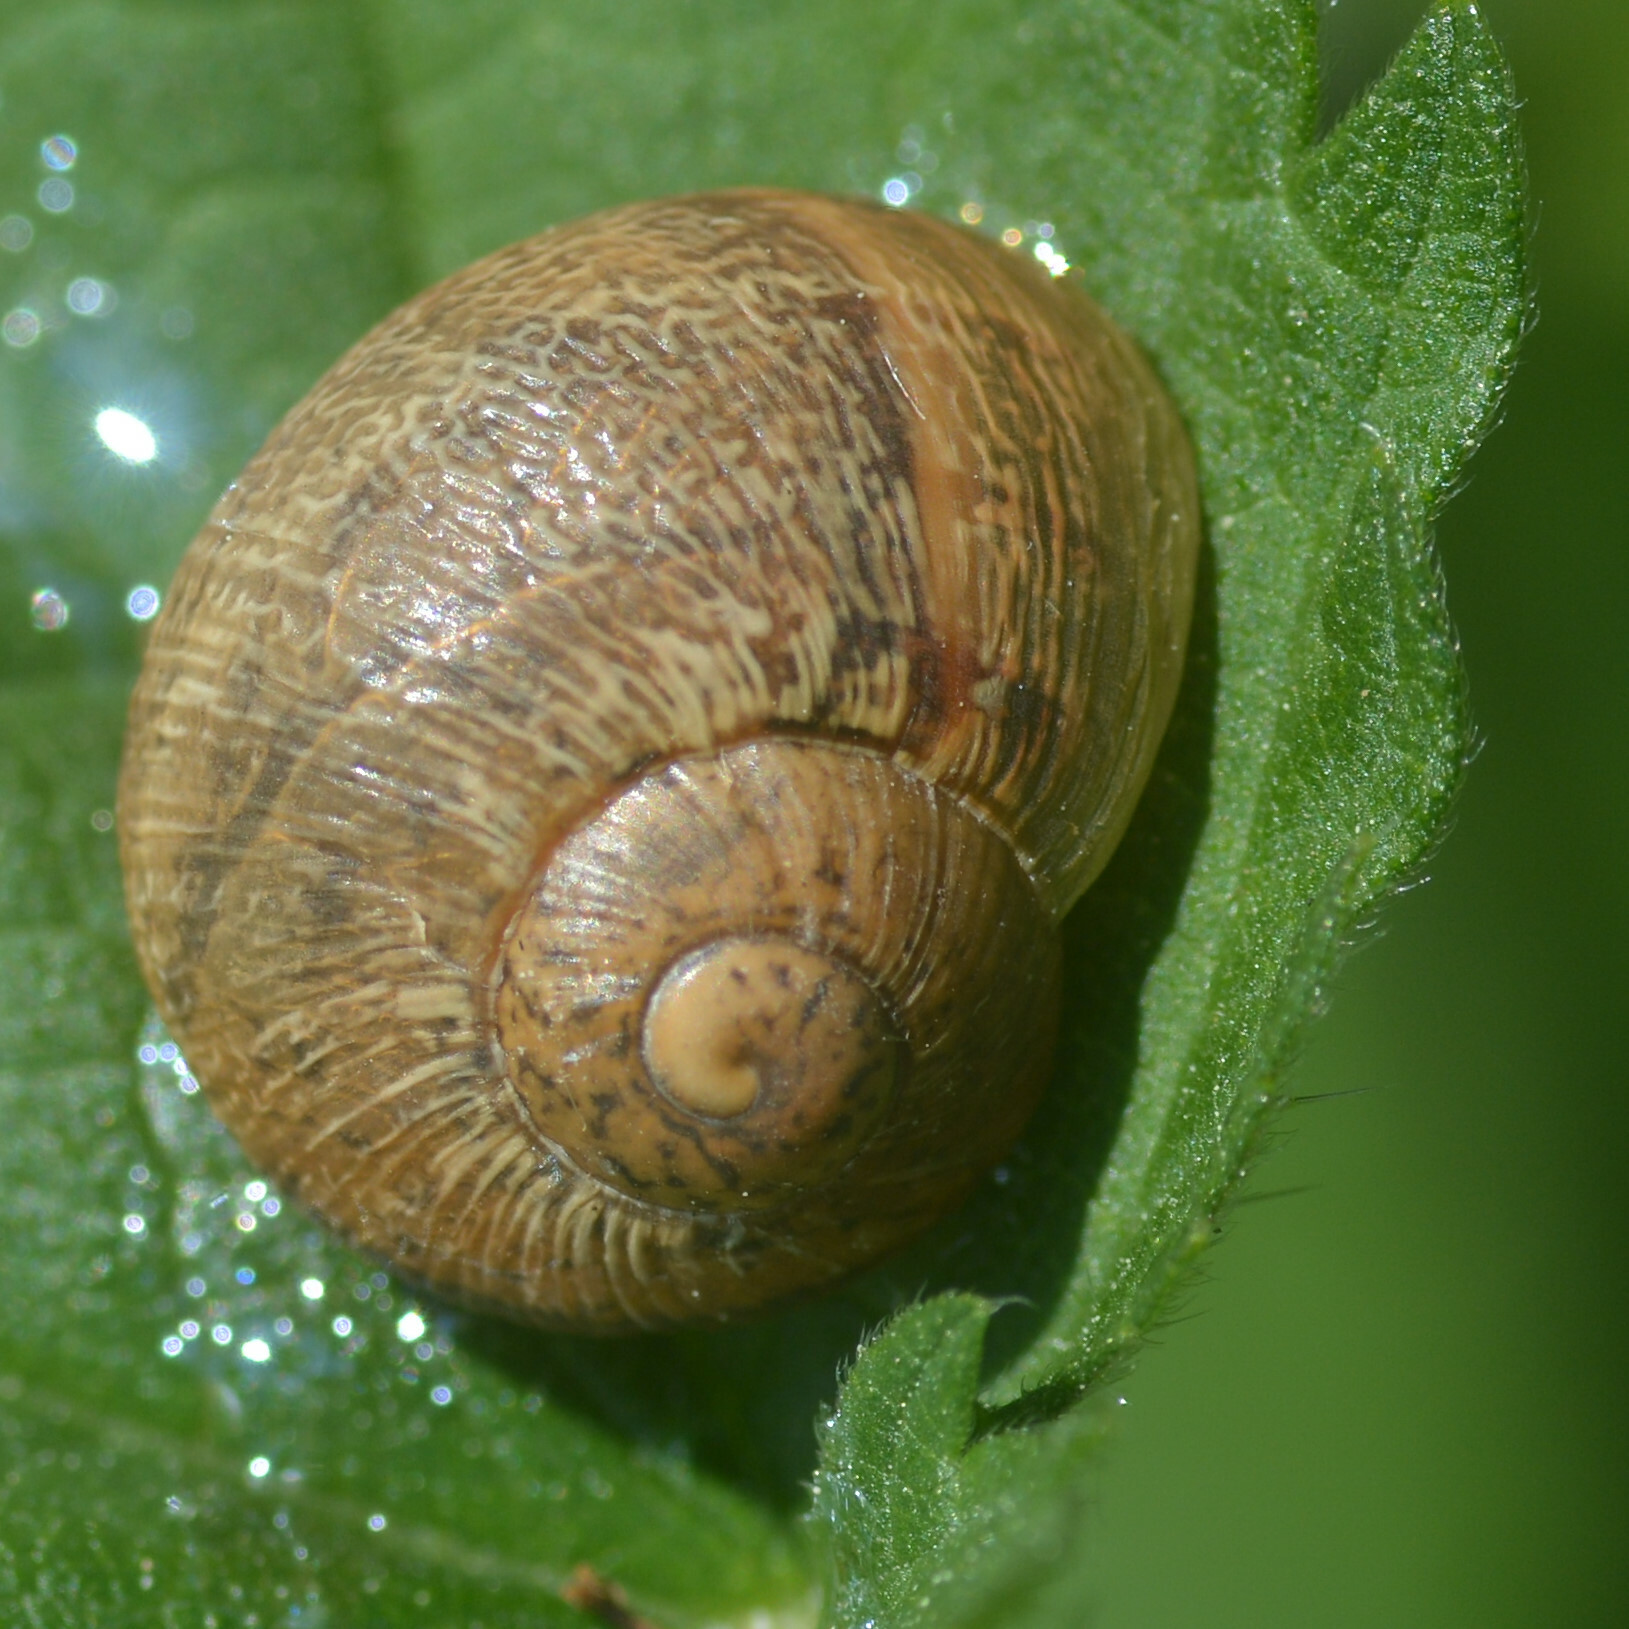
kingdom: Animalia
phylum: Mollusca
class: Gastropoda
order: Stylommatophora
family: Helicidae
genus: Cornu
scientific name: Cornu aspersum
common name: Brown garden snail
